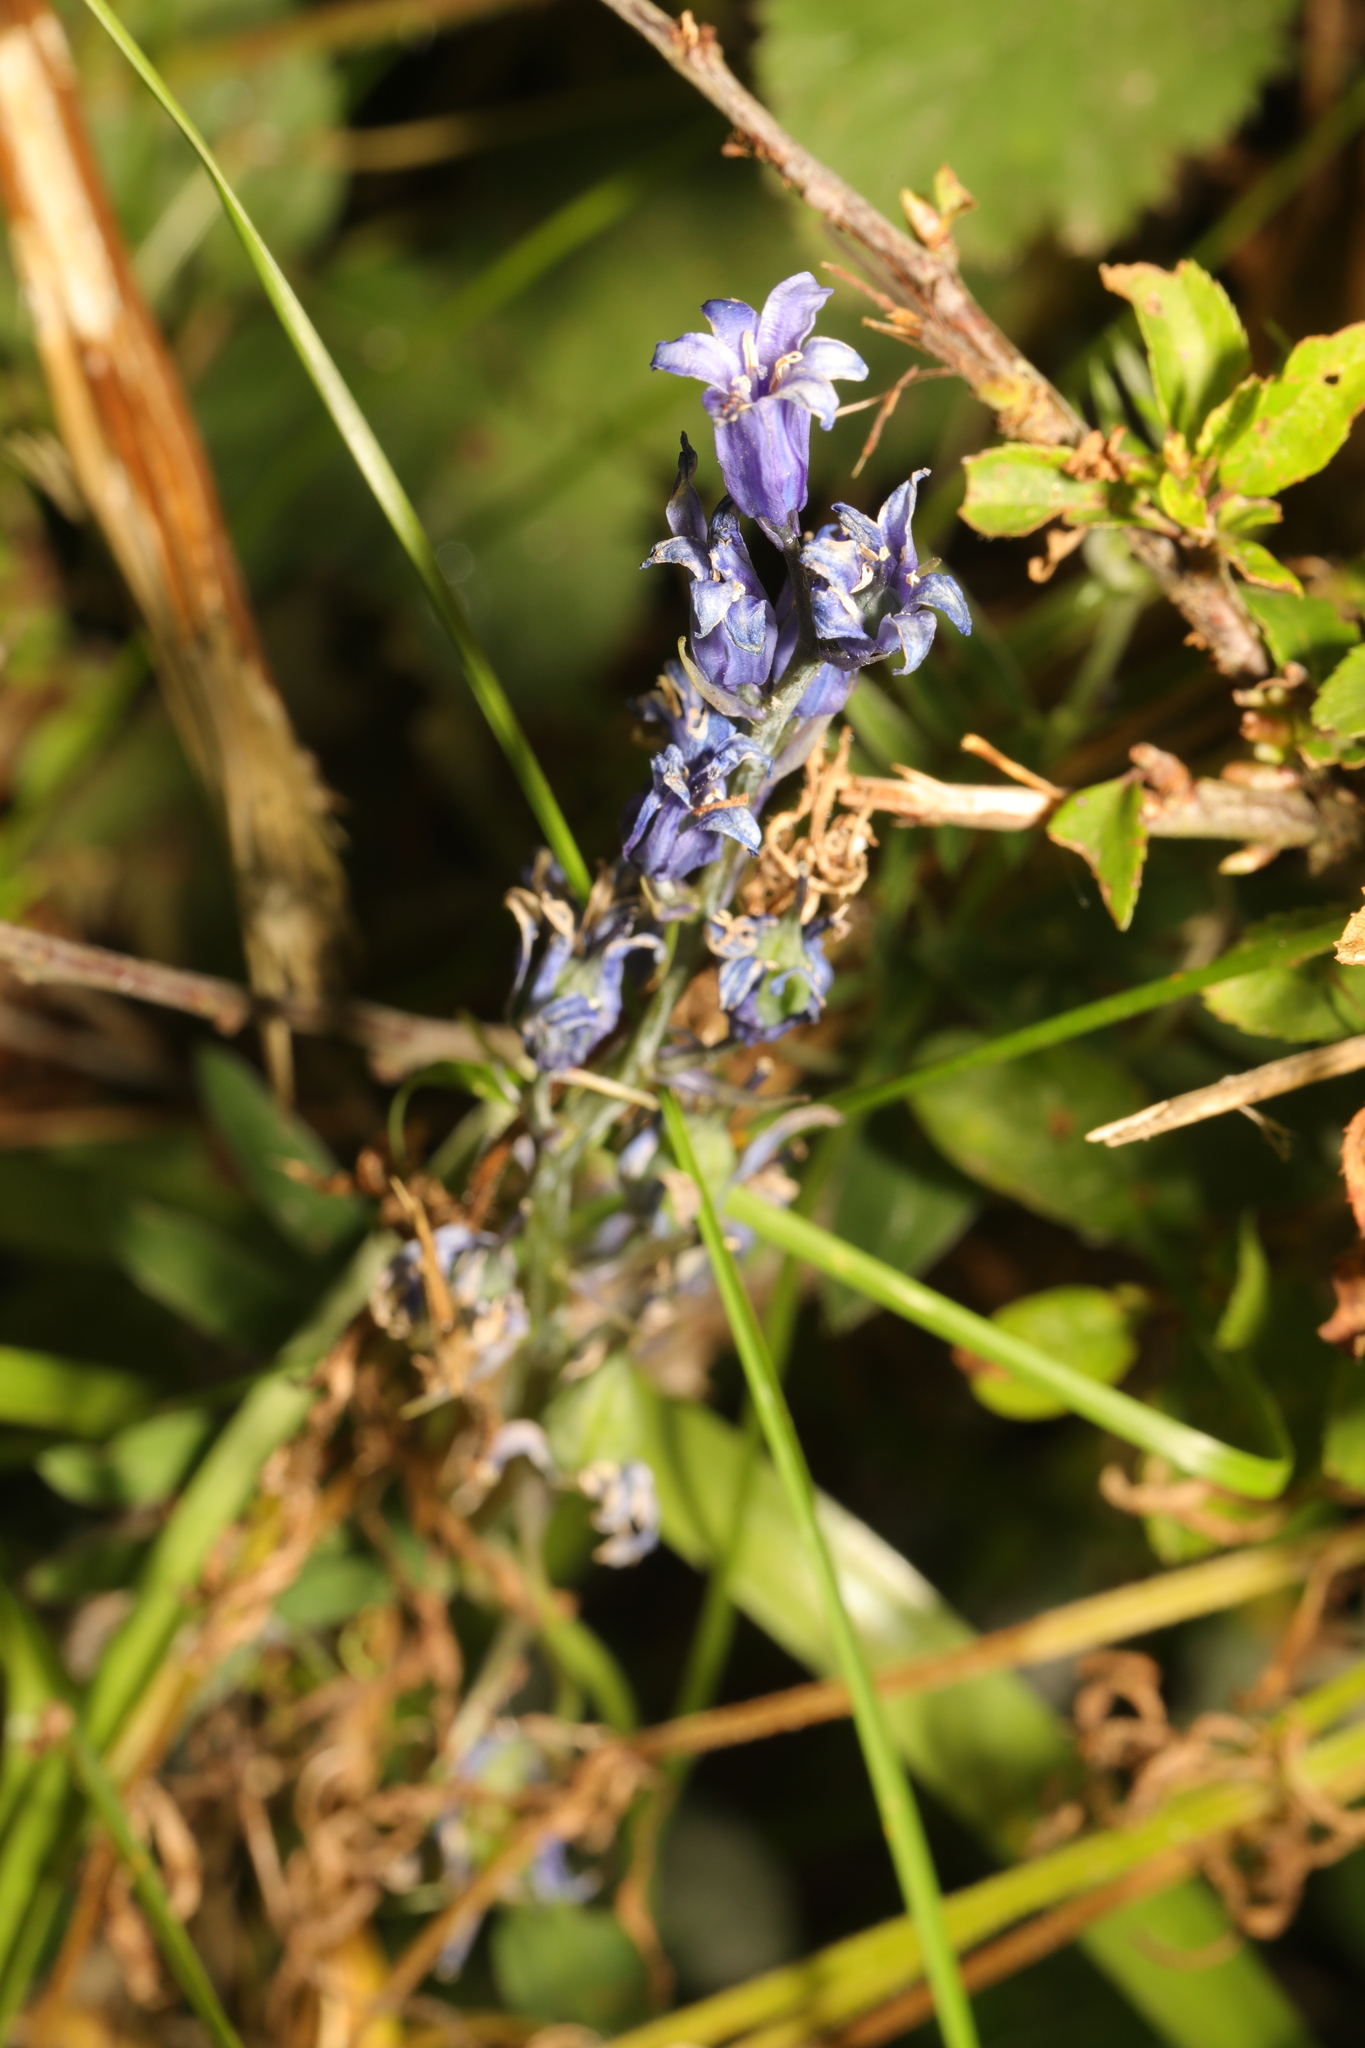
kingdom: Plantae
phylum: Tracheophyta
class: Liliopsida
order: Asparagales
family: Asparagaceae
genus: Hyacinthoides
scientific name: Hyacinthoides hispanica
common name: Spanish bluebell
